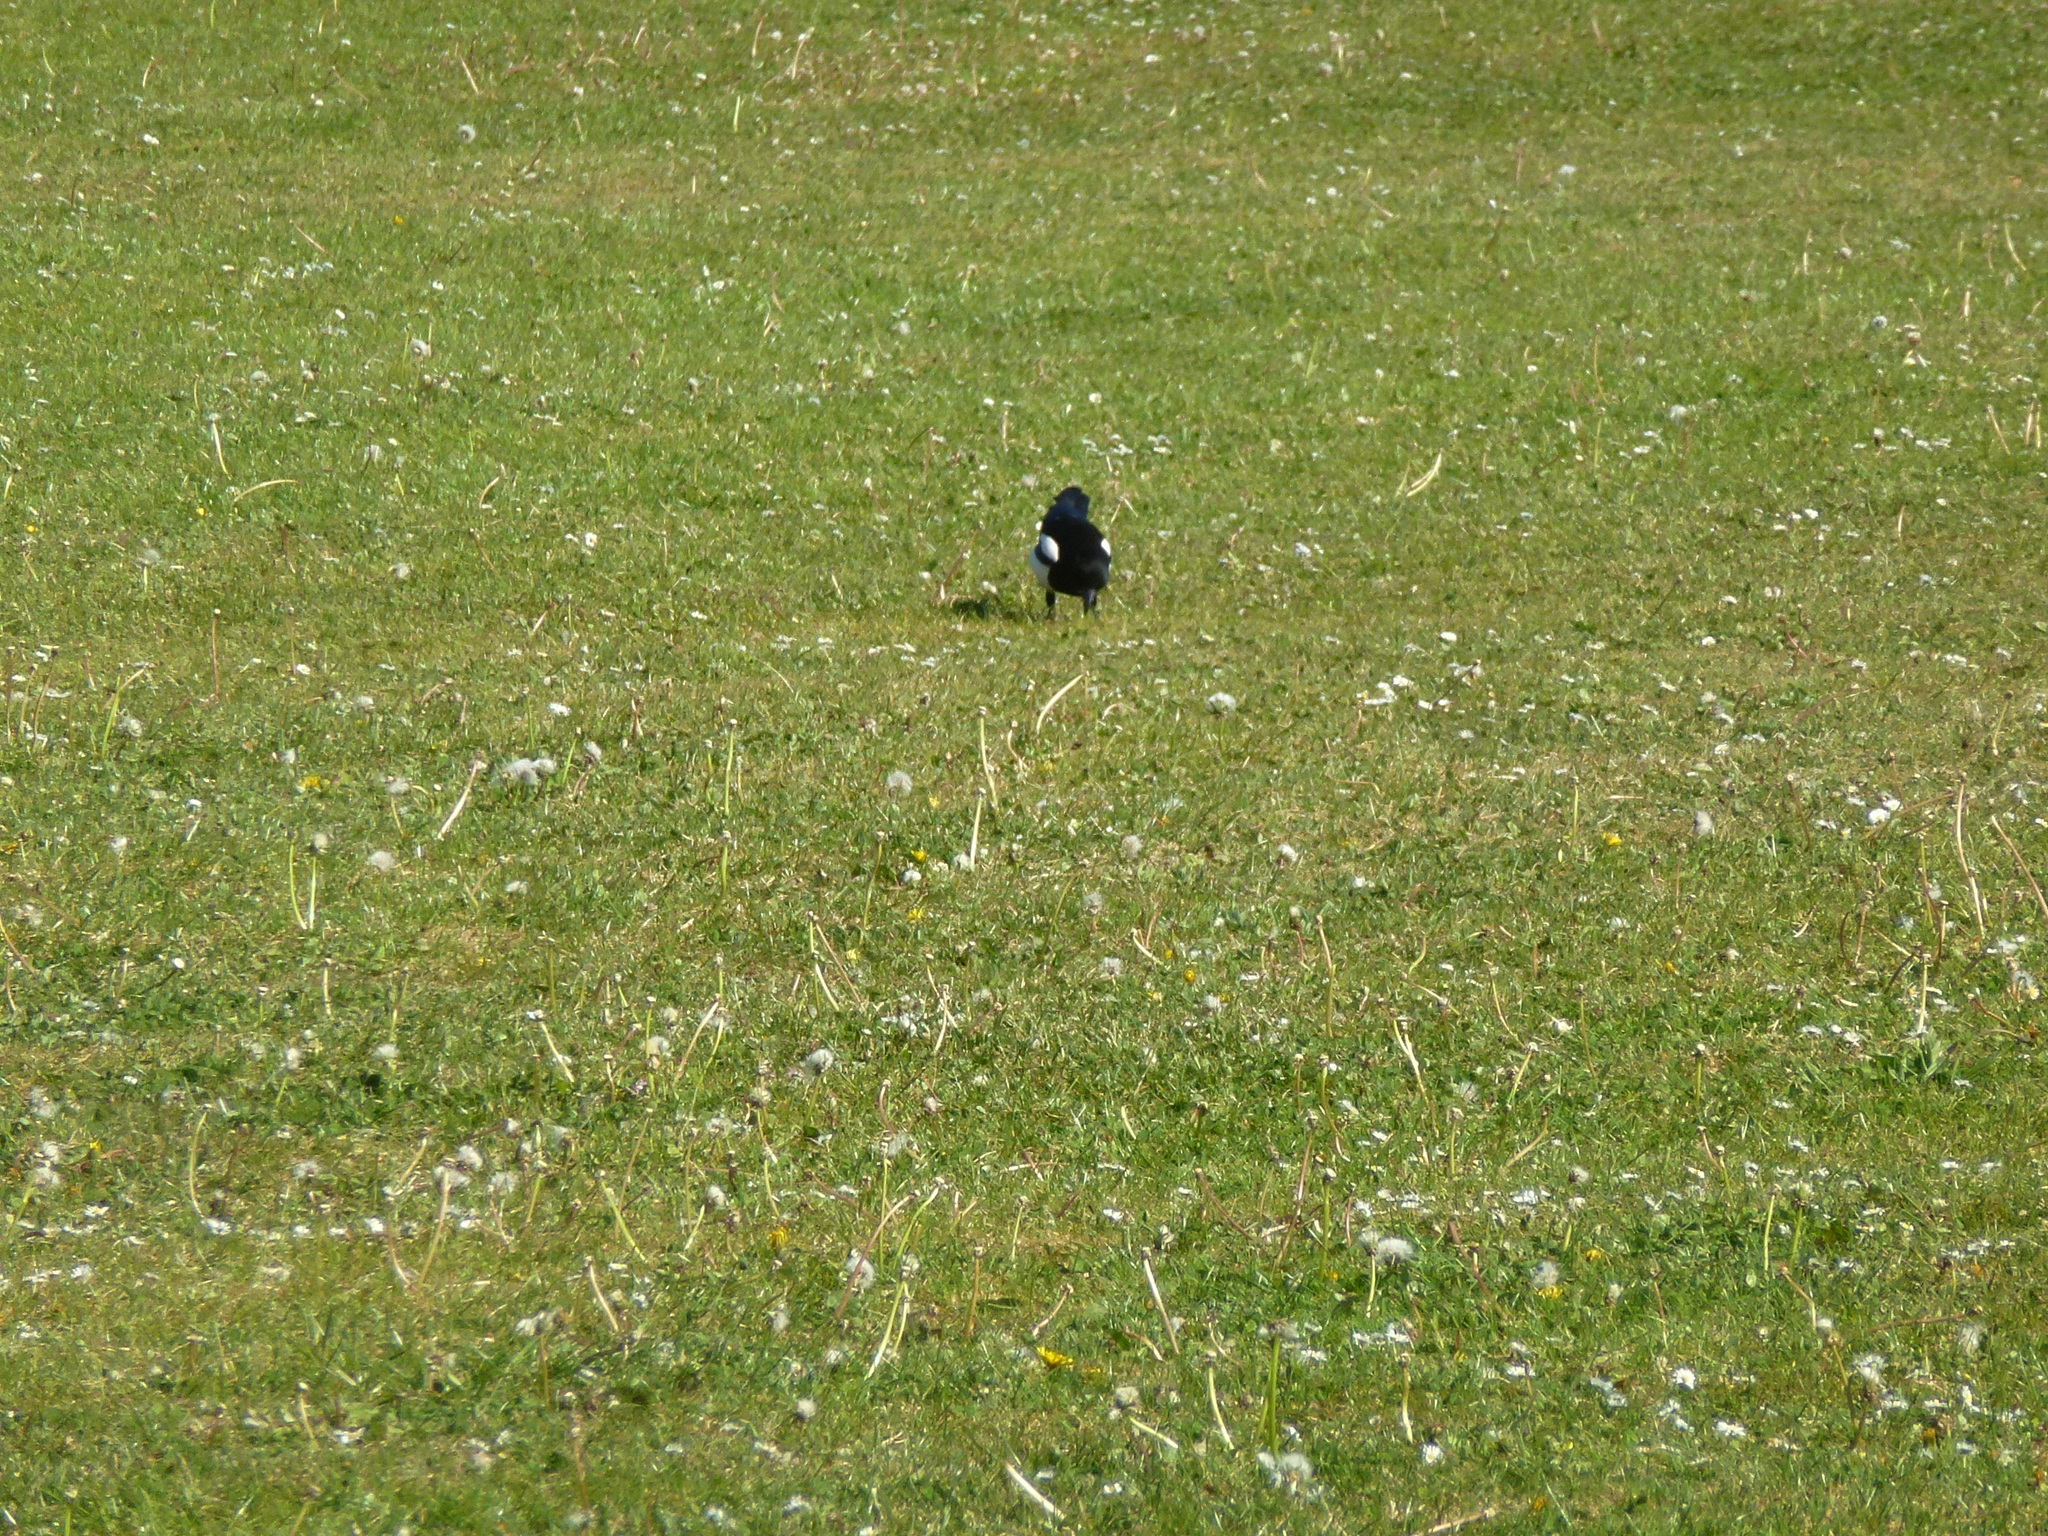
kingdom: Animalia
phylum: Chordata
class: Aves
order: Passeriformes
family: Corvidae
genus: Pica
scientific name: Pica pica
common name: Eurasian magpie
